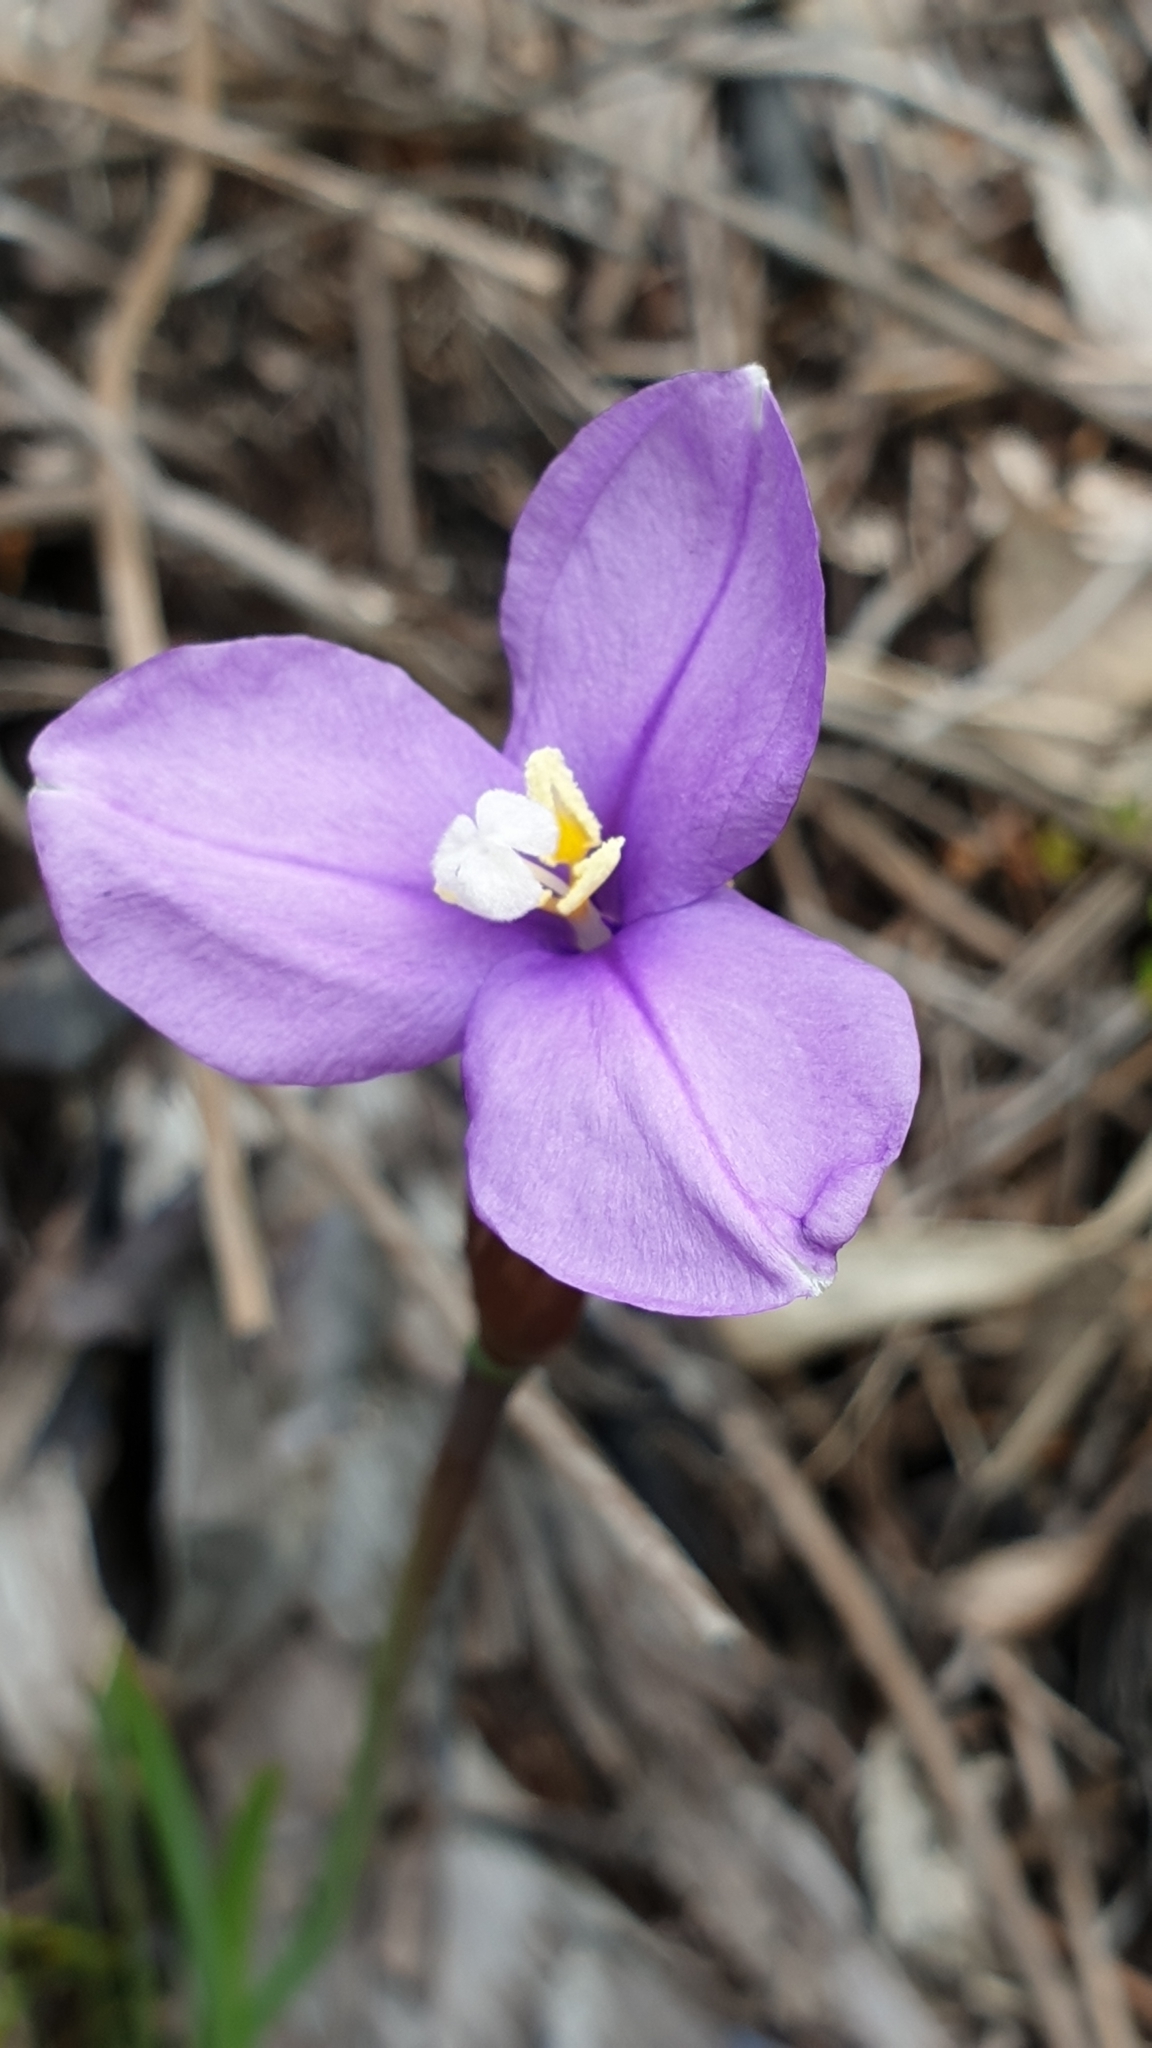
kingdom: Plantae
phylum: Tracheophyta
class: Liliopsida
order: Asparagales
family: Iridaceae
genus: Patersonia
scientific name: Patersonia occidentalis
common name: Long purple-flag
